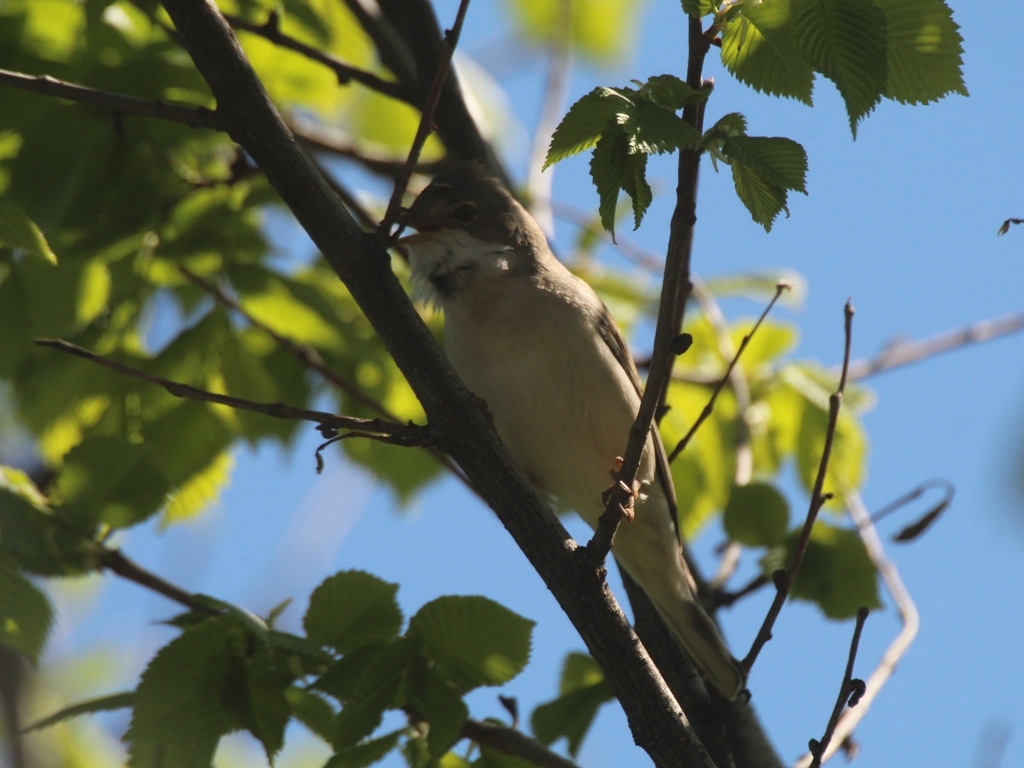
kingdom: Animalia
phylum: Chordata
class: Aves
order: Passeriformes
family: Sylviidae
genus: Sylvia
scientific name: Sylvia communis
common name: Common whitethroat
